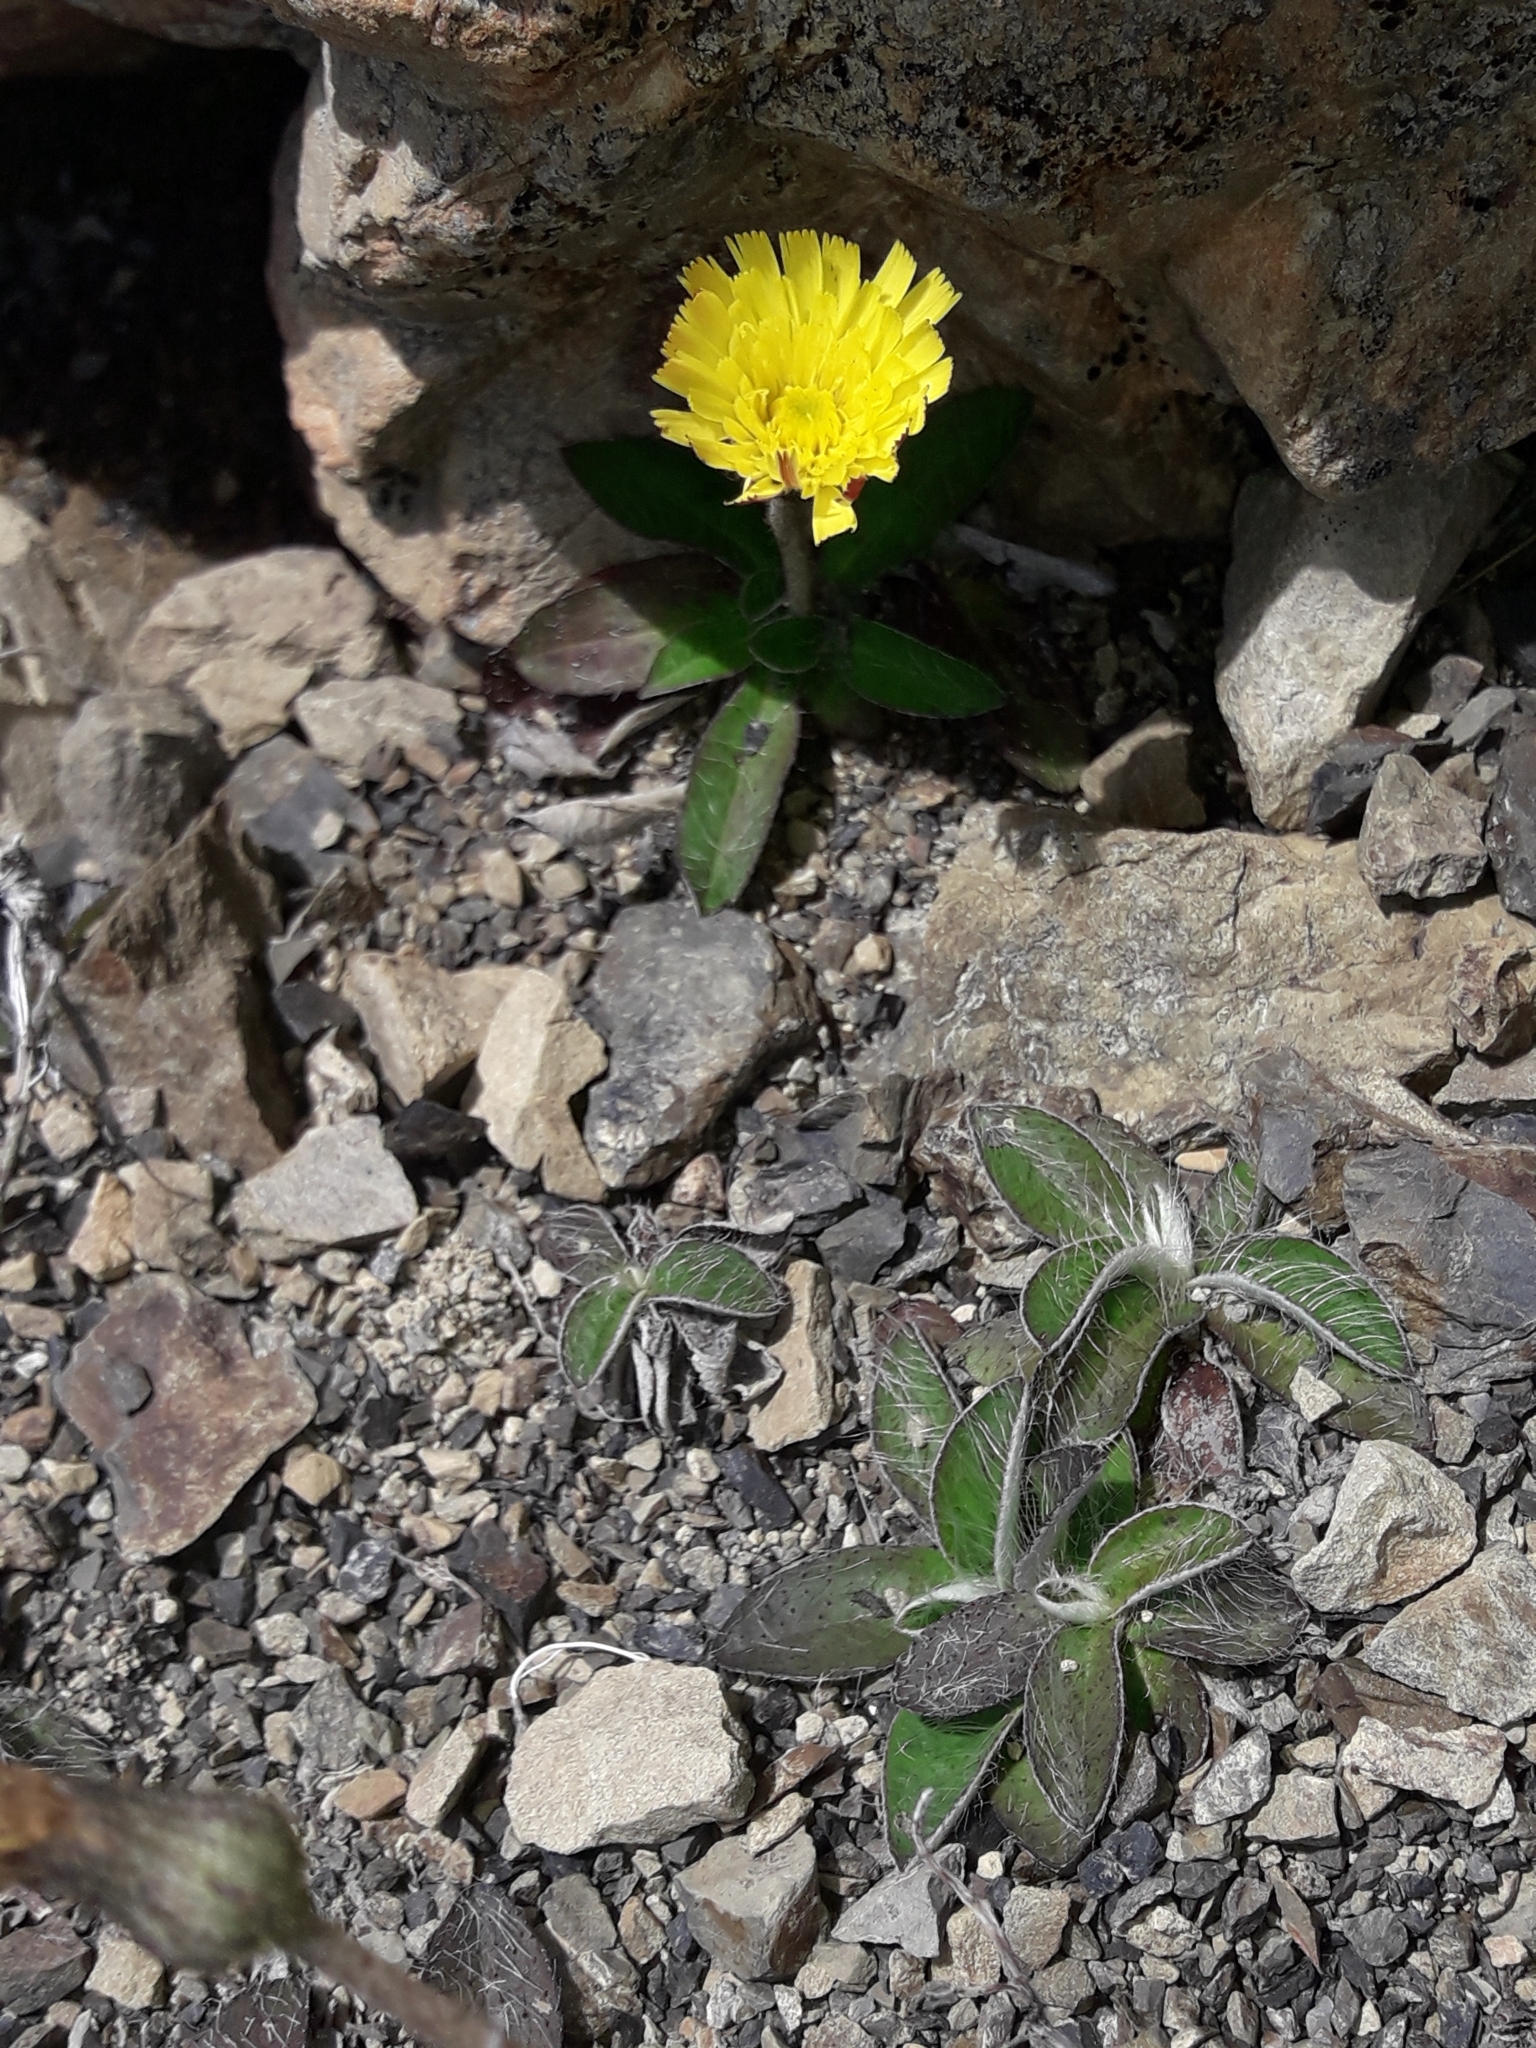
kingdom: Plantae
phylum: Tracheophyta
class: Magnoliopsida
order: Asterales
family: Asteraceae
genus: Pilosella
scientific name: Pilosella officinarum
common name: Mouse-ear hawkweed
